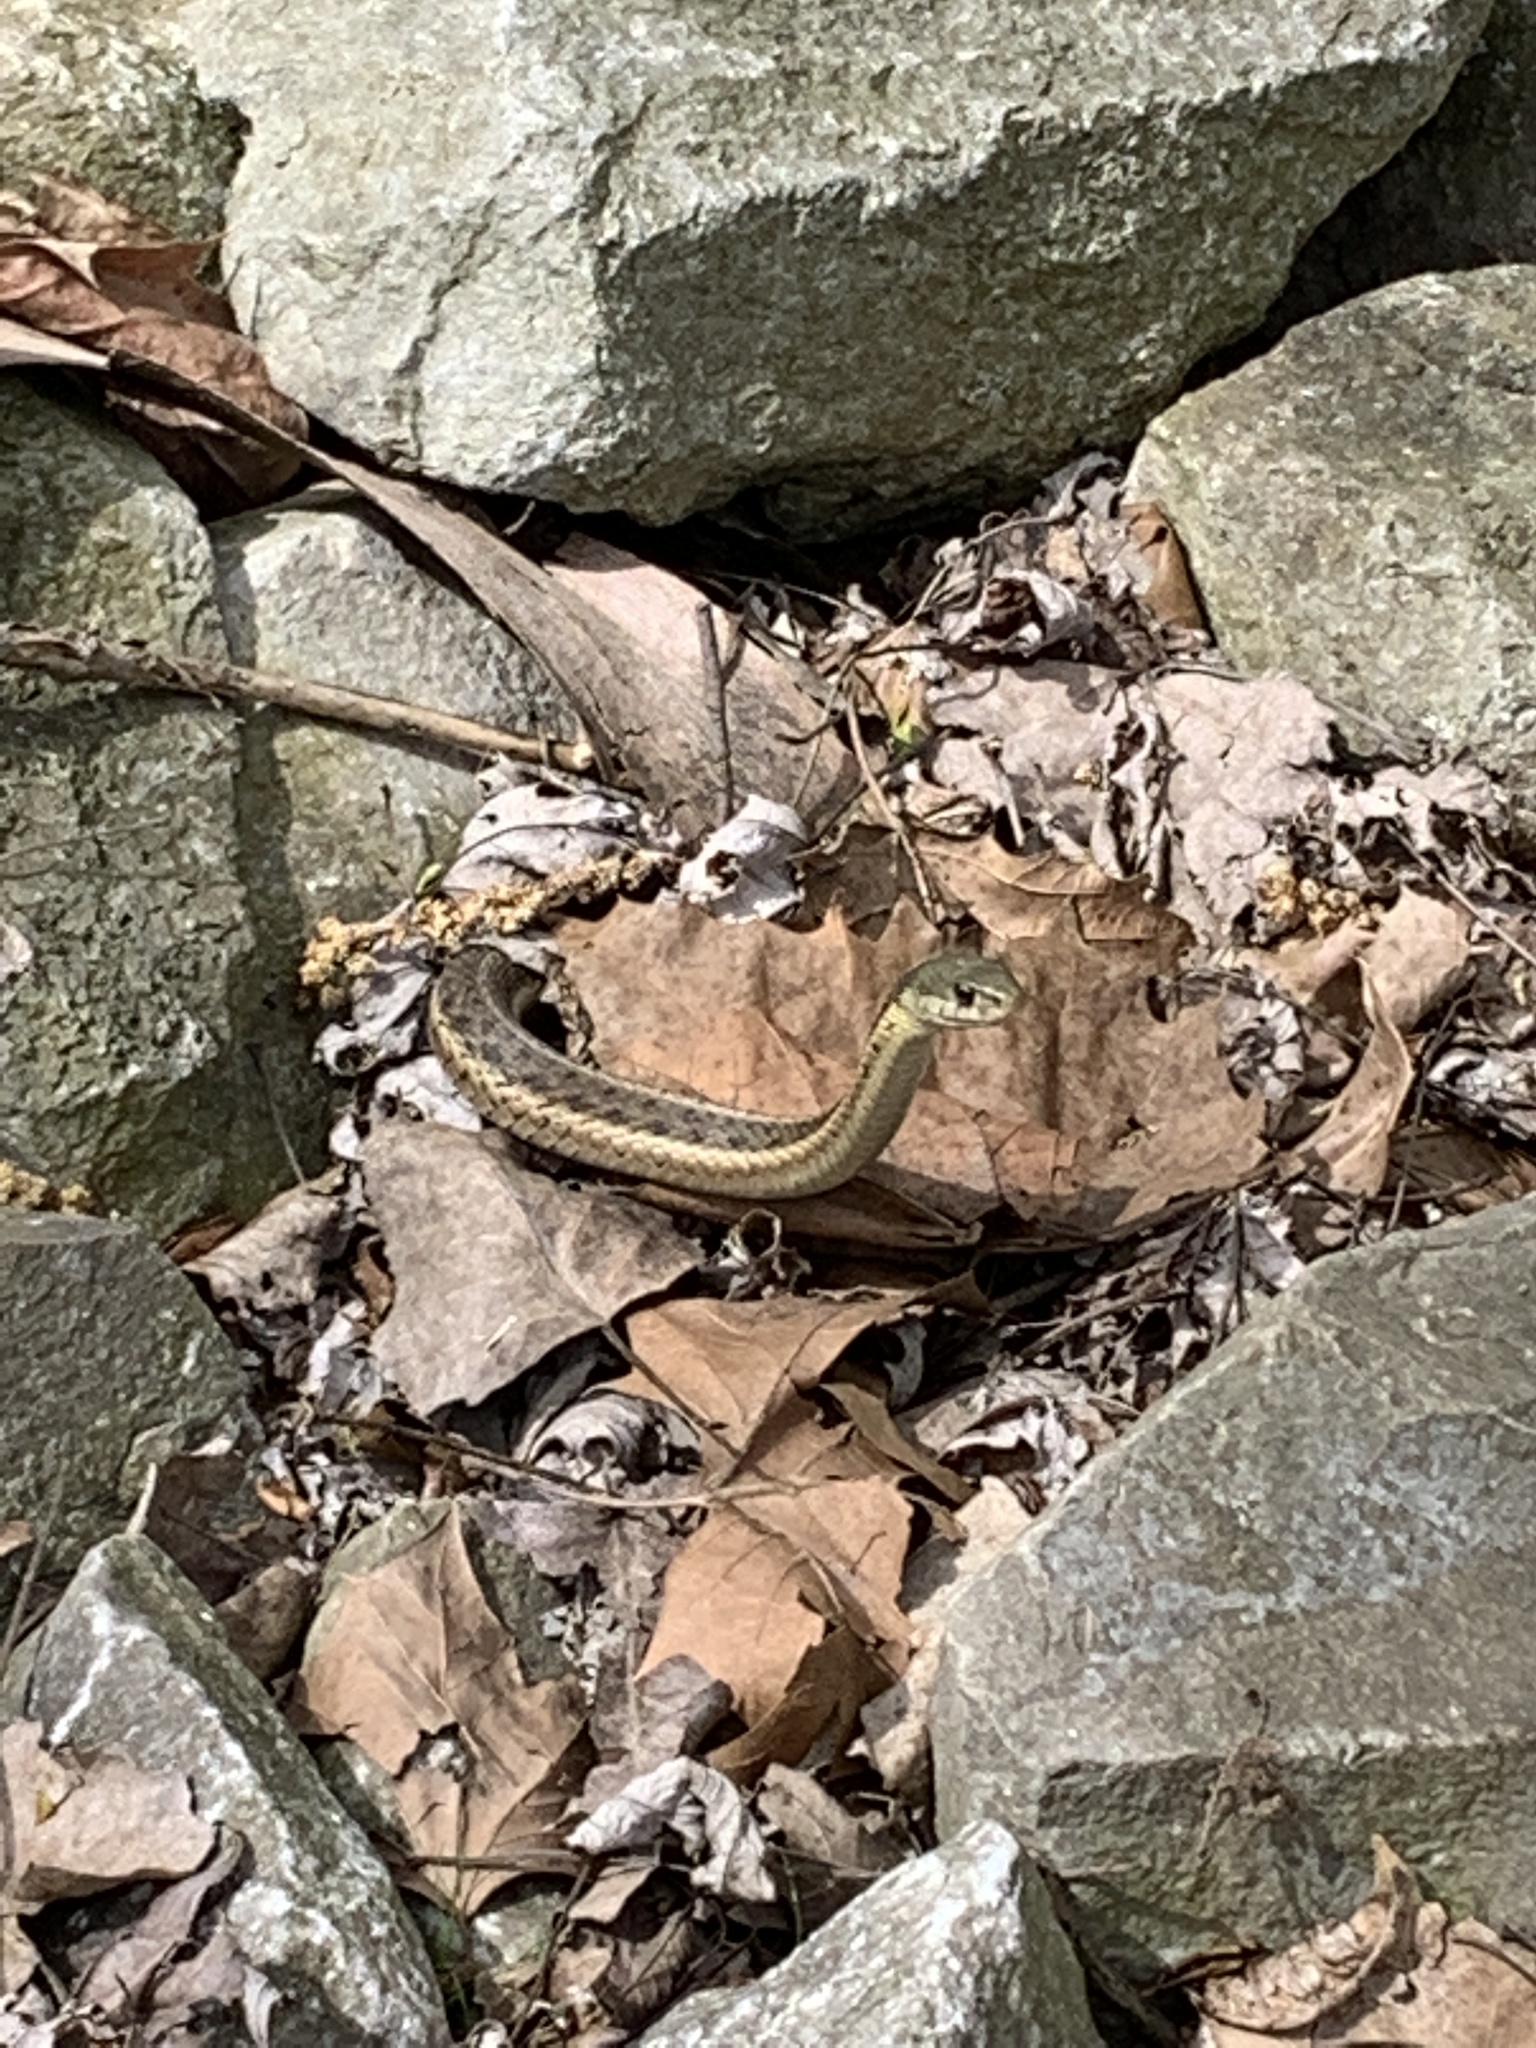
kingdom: Animalia
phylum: Chordata
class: Squamata
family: Colubridae
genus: Thamnophis
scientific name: Thamnophis sirtalis
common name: Common garter snake
